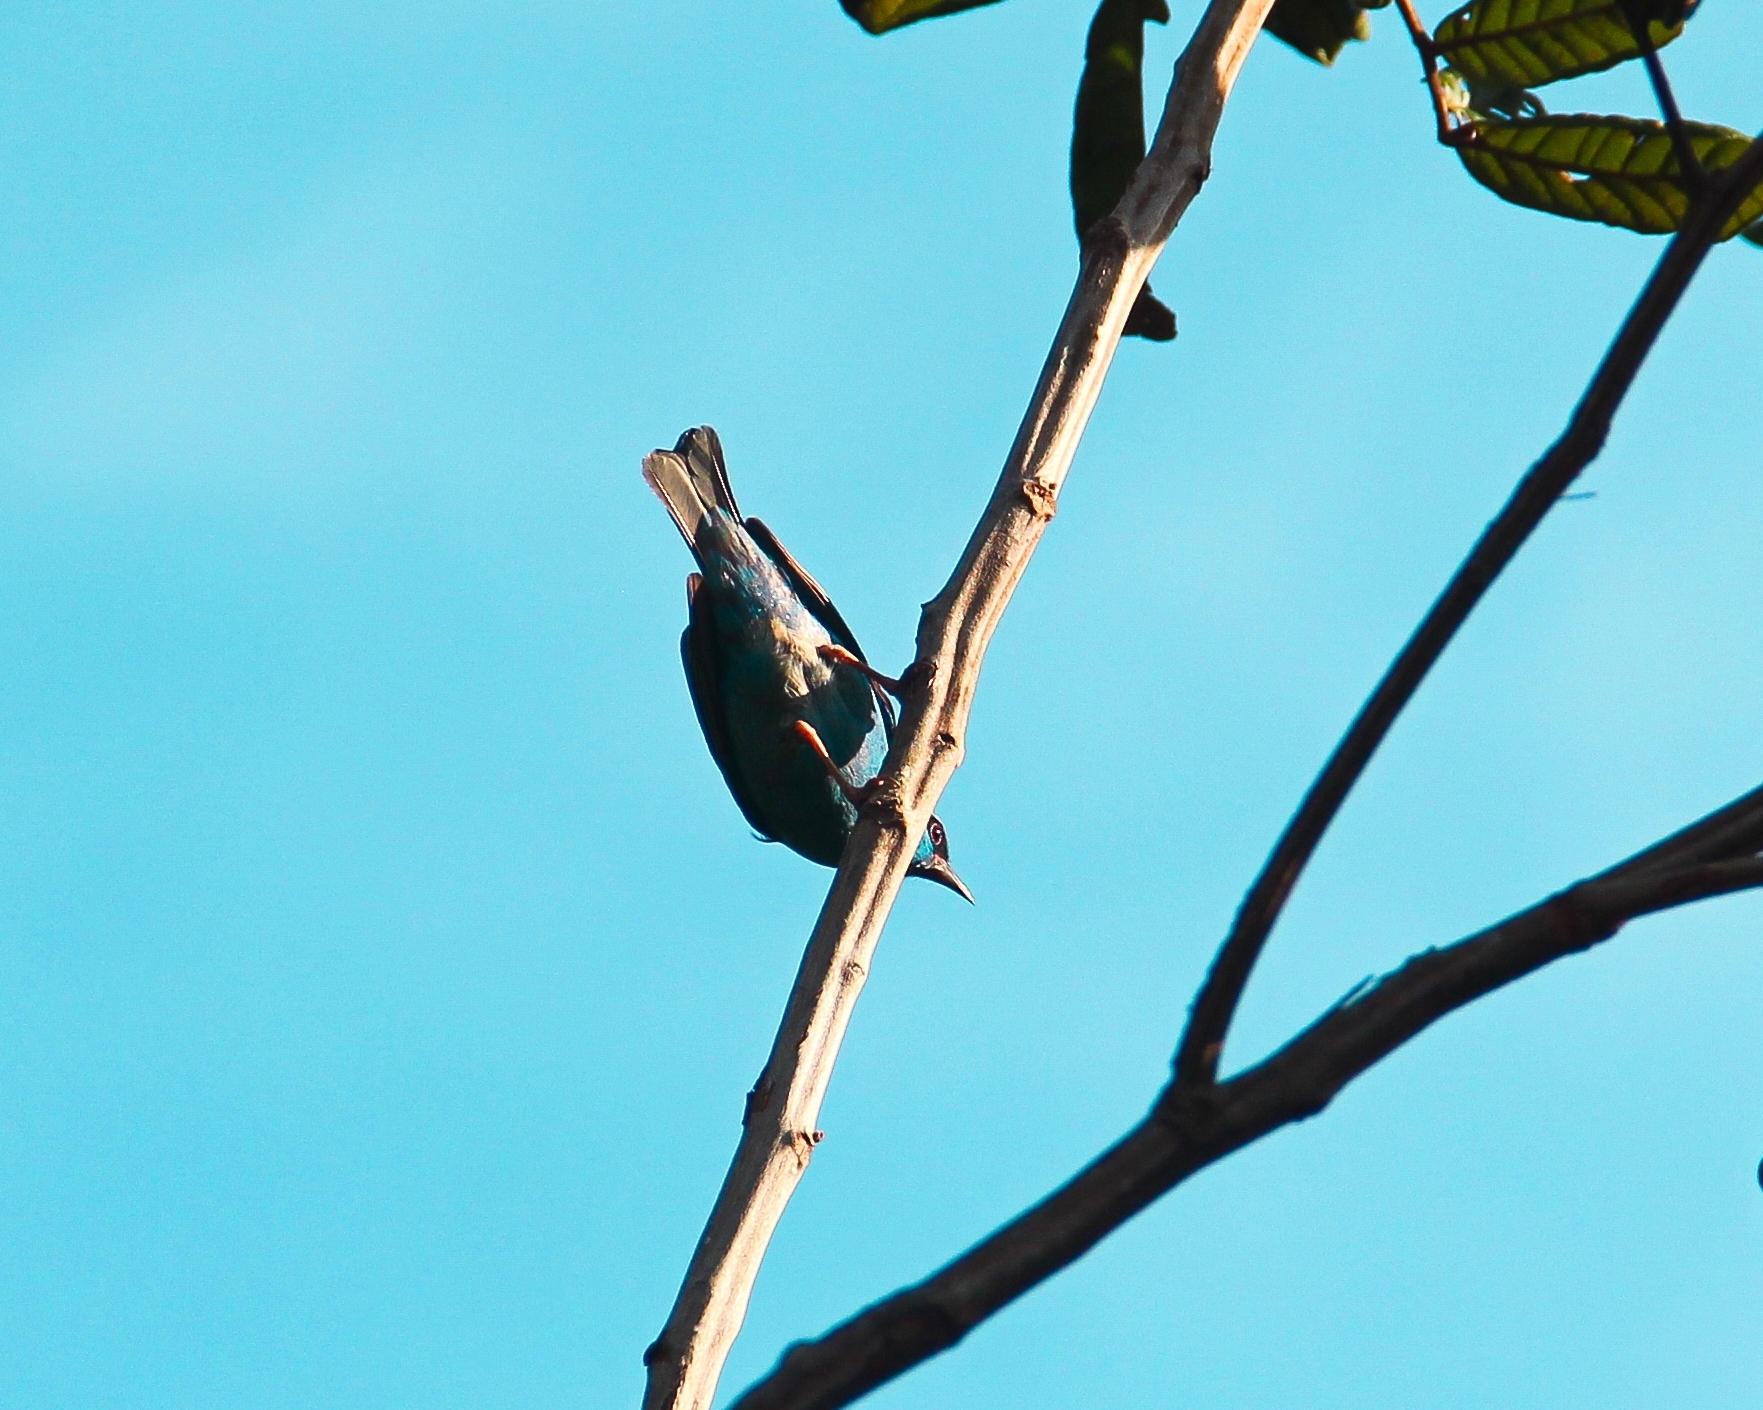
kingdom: Animalia
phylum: Chordata
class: Aves
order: Passeriformes
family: Thraupidae
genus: Dacnis
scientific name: Dacnis cayana
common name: Blue dacnis
